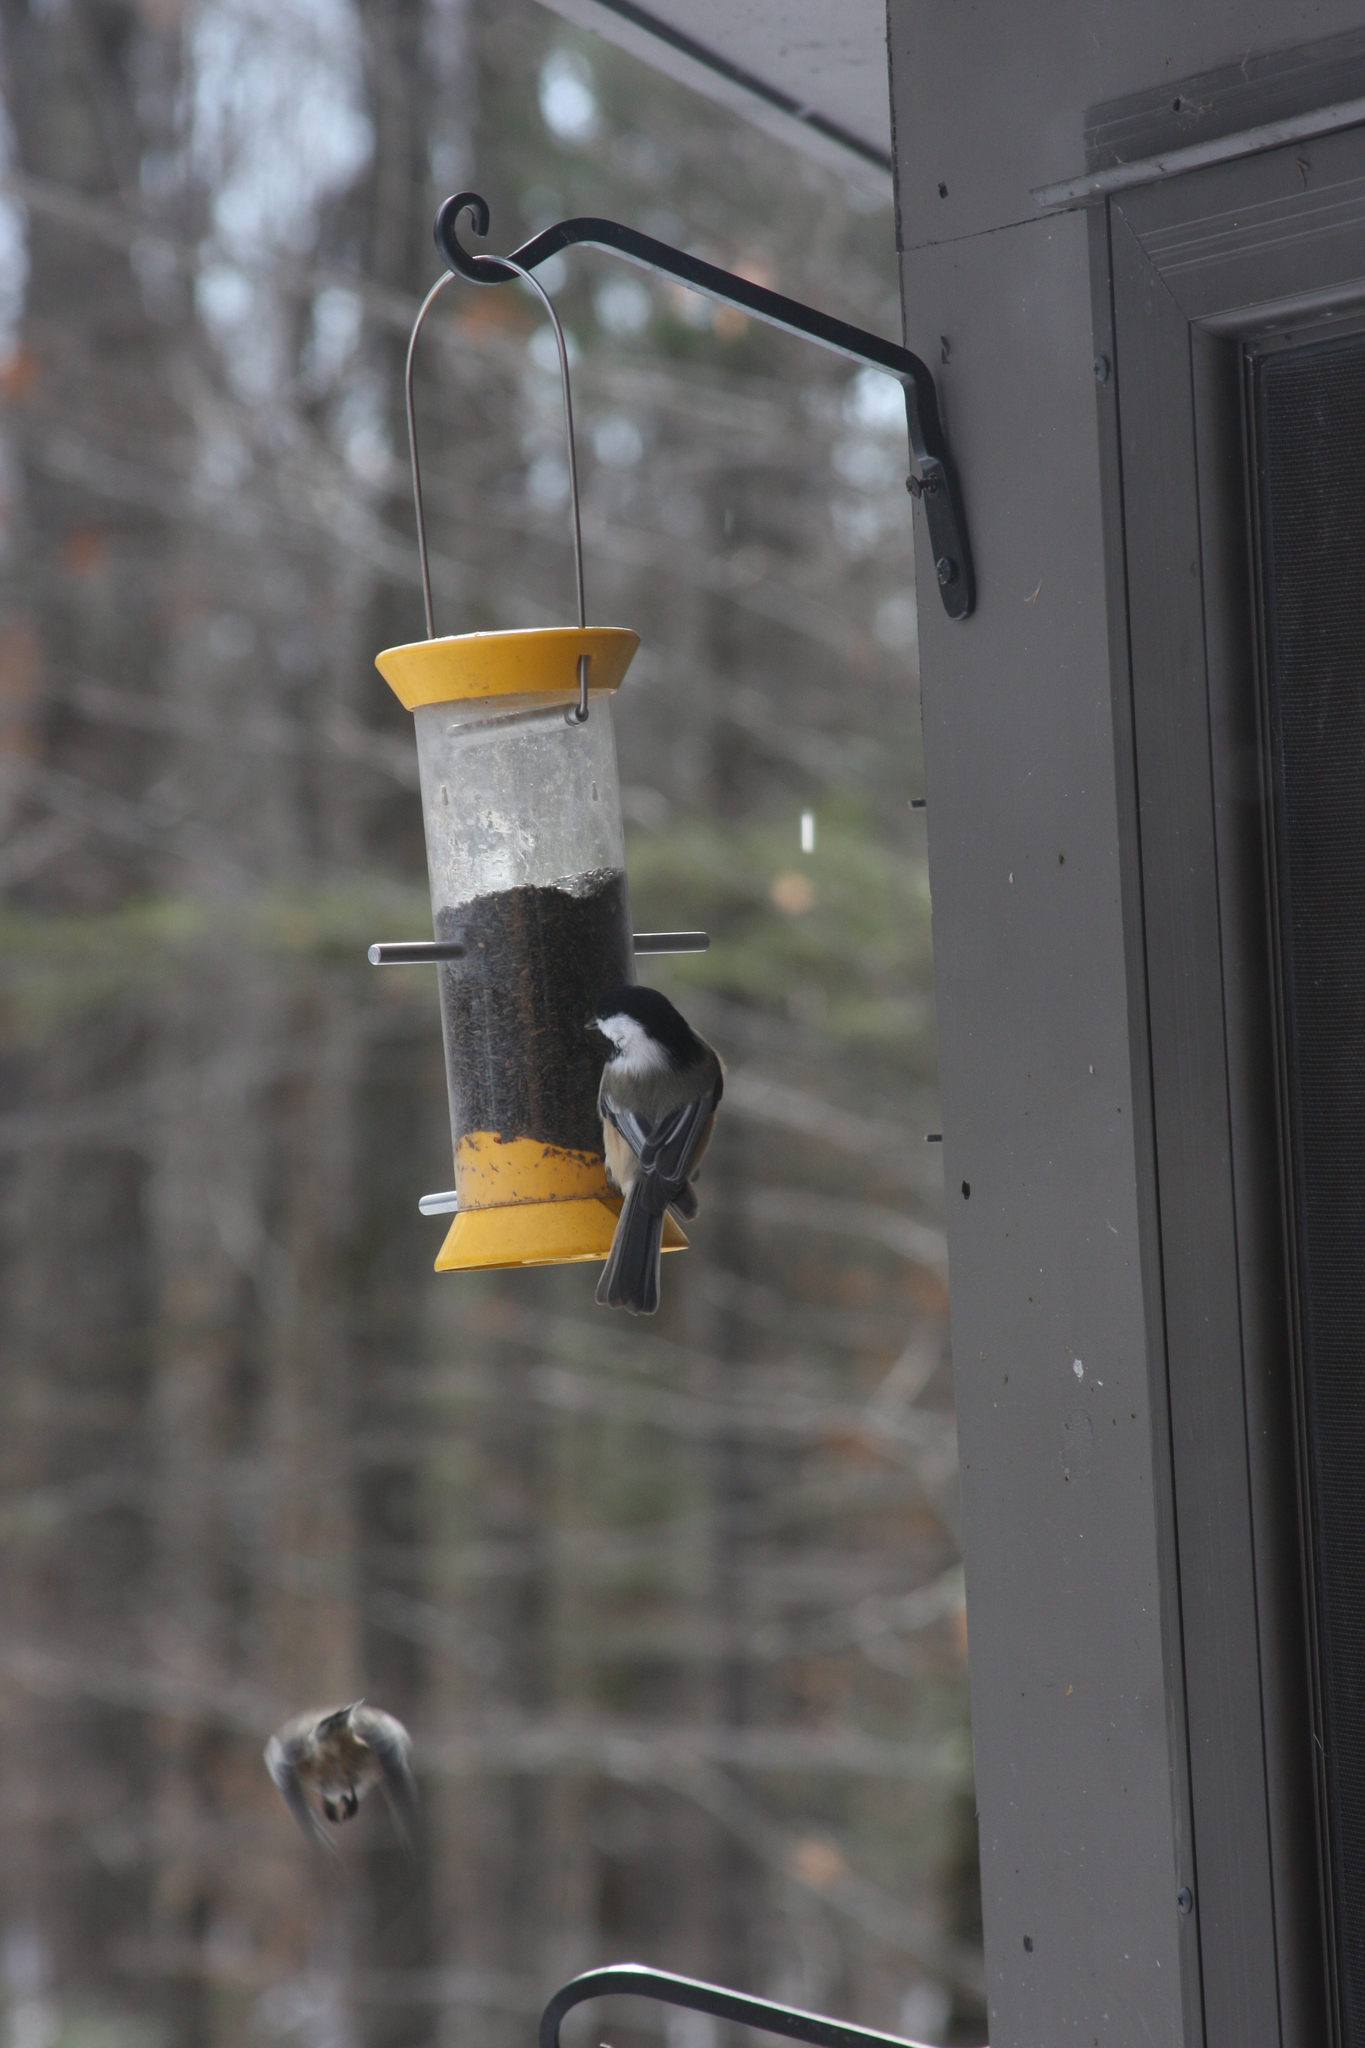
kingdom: Animalia
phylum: Chordata
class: Aves
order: Passeriformes
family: Paridae
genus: Poecile
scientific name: Poecile atricapillus
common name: Black-capped chickadee
